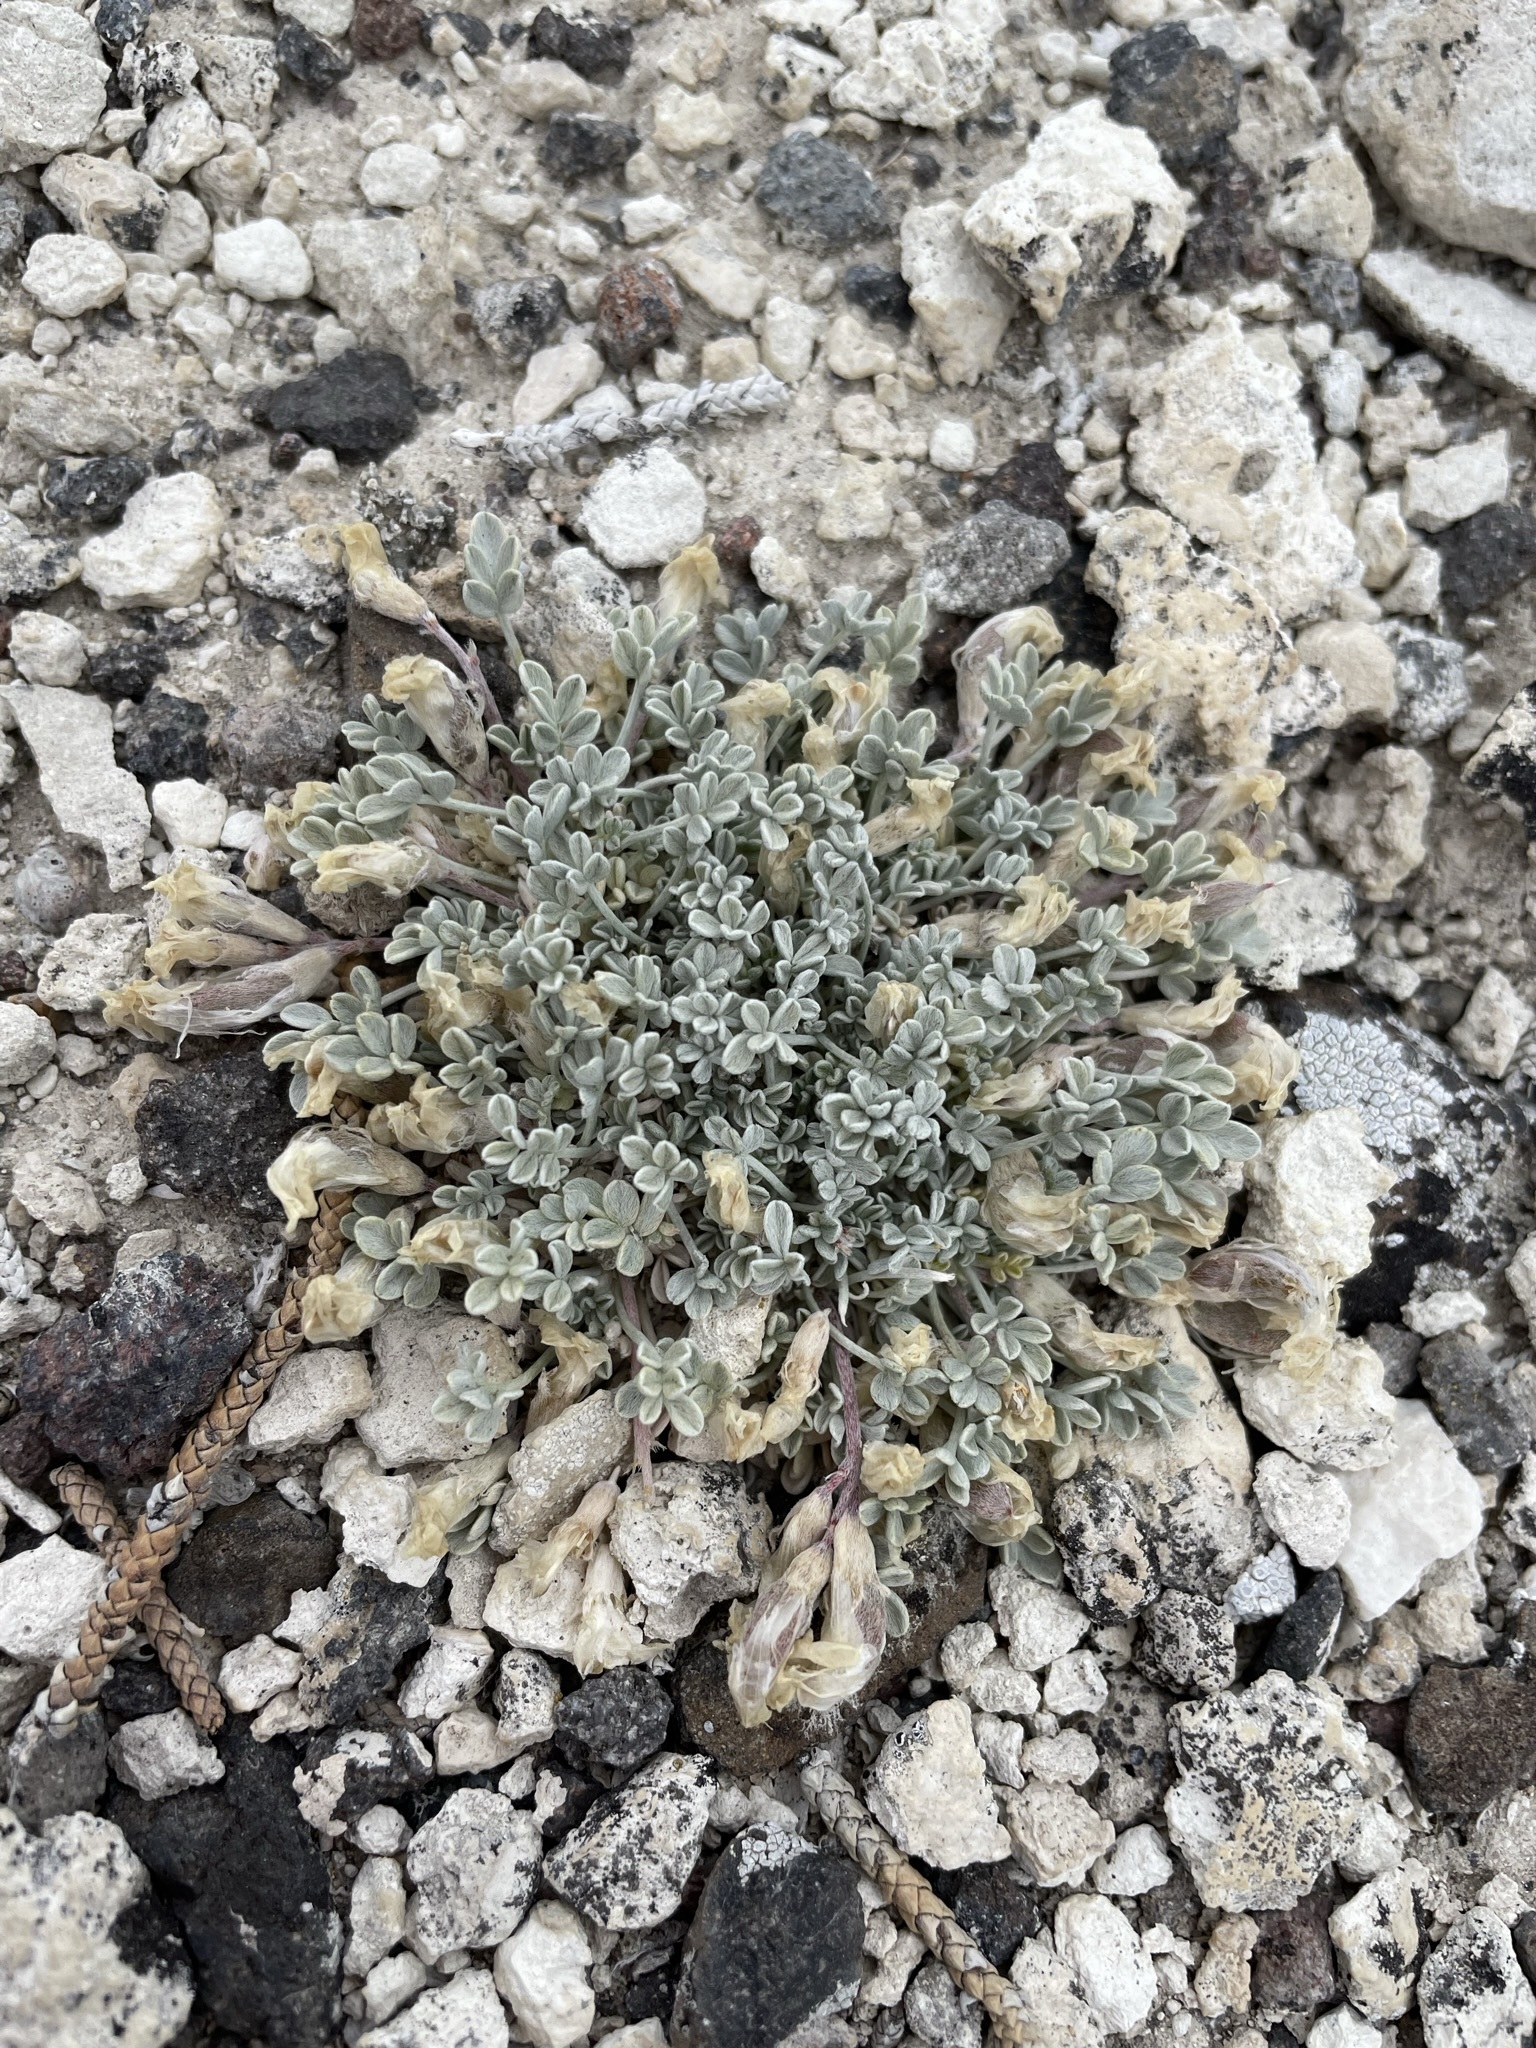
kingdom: Plantae
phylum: Tracheophyta
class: Magnoliopsida
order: Fabales
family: Fabaceae
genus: Astragalus
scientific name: Astragalus calycosus
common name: King's milkvetch
